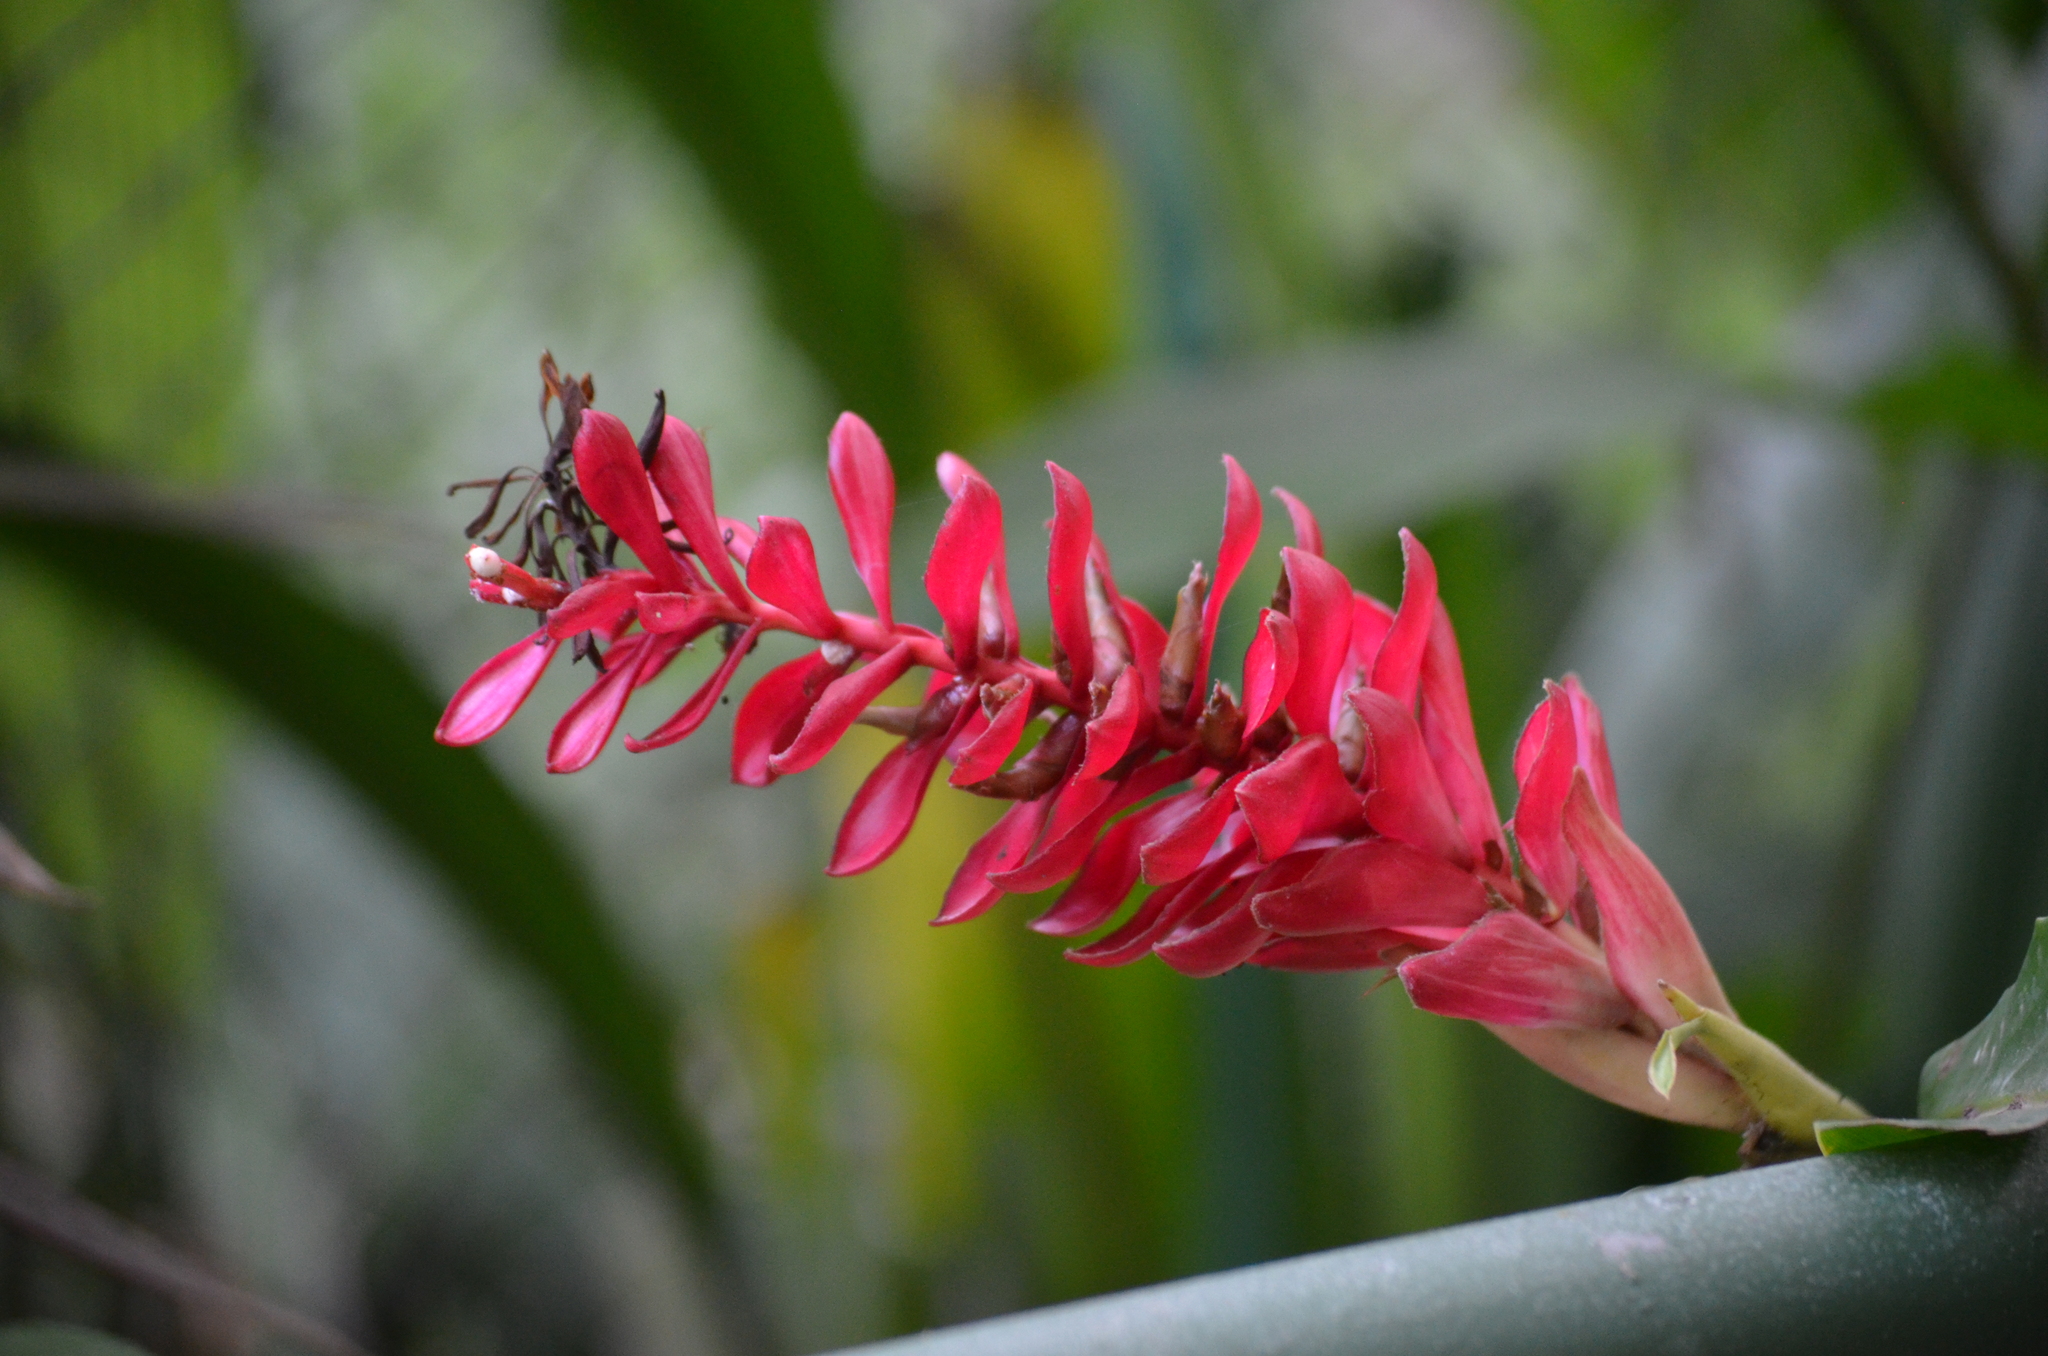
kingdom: Plantae
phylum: Tracheophyta
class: Liliopsida
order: Zingiberales
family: Zingiberaceae
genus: Alpinia
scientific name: Alpinia purpurata
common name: Red ginger
